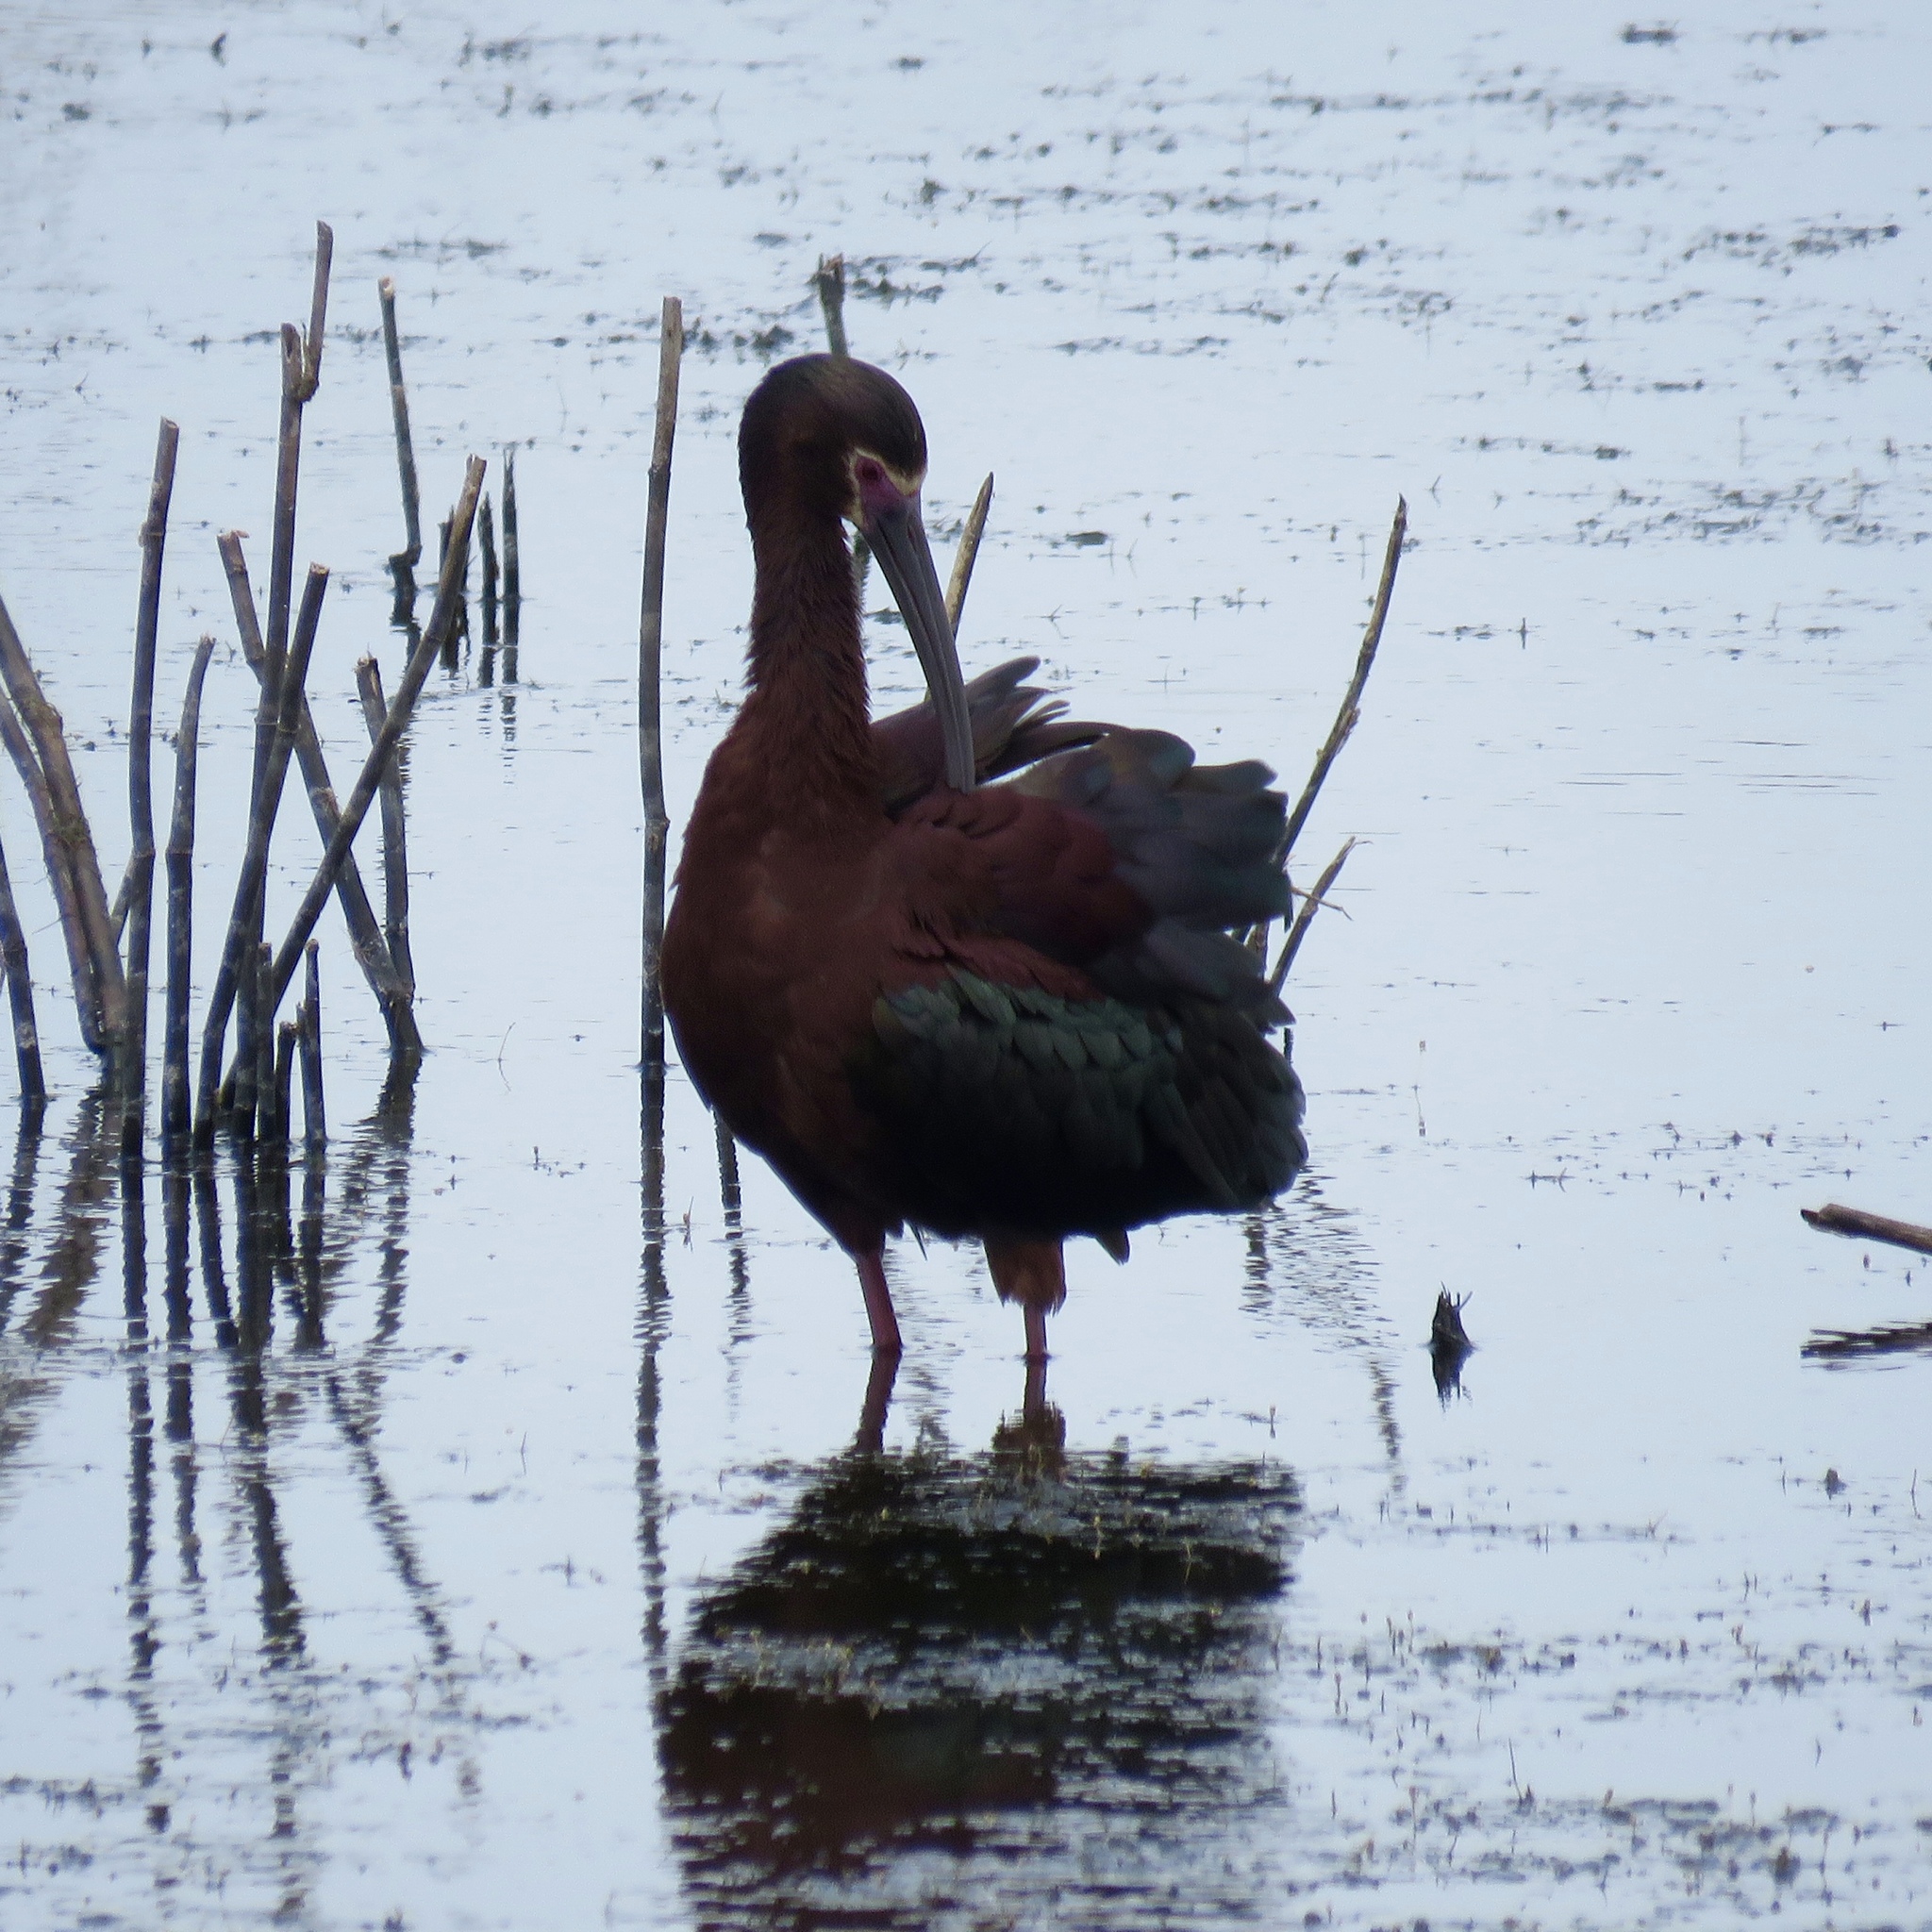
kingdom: Animalia
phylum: Chordata
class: Aves
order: Pelecaniformes
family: Threskiornithidae
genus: Plegadis
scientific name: Plegadis chihi
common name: White-faced ibis
